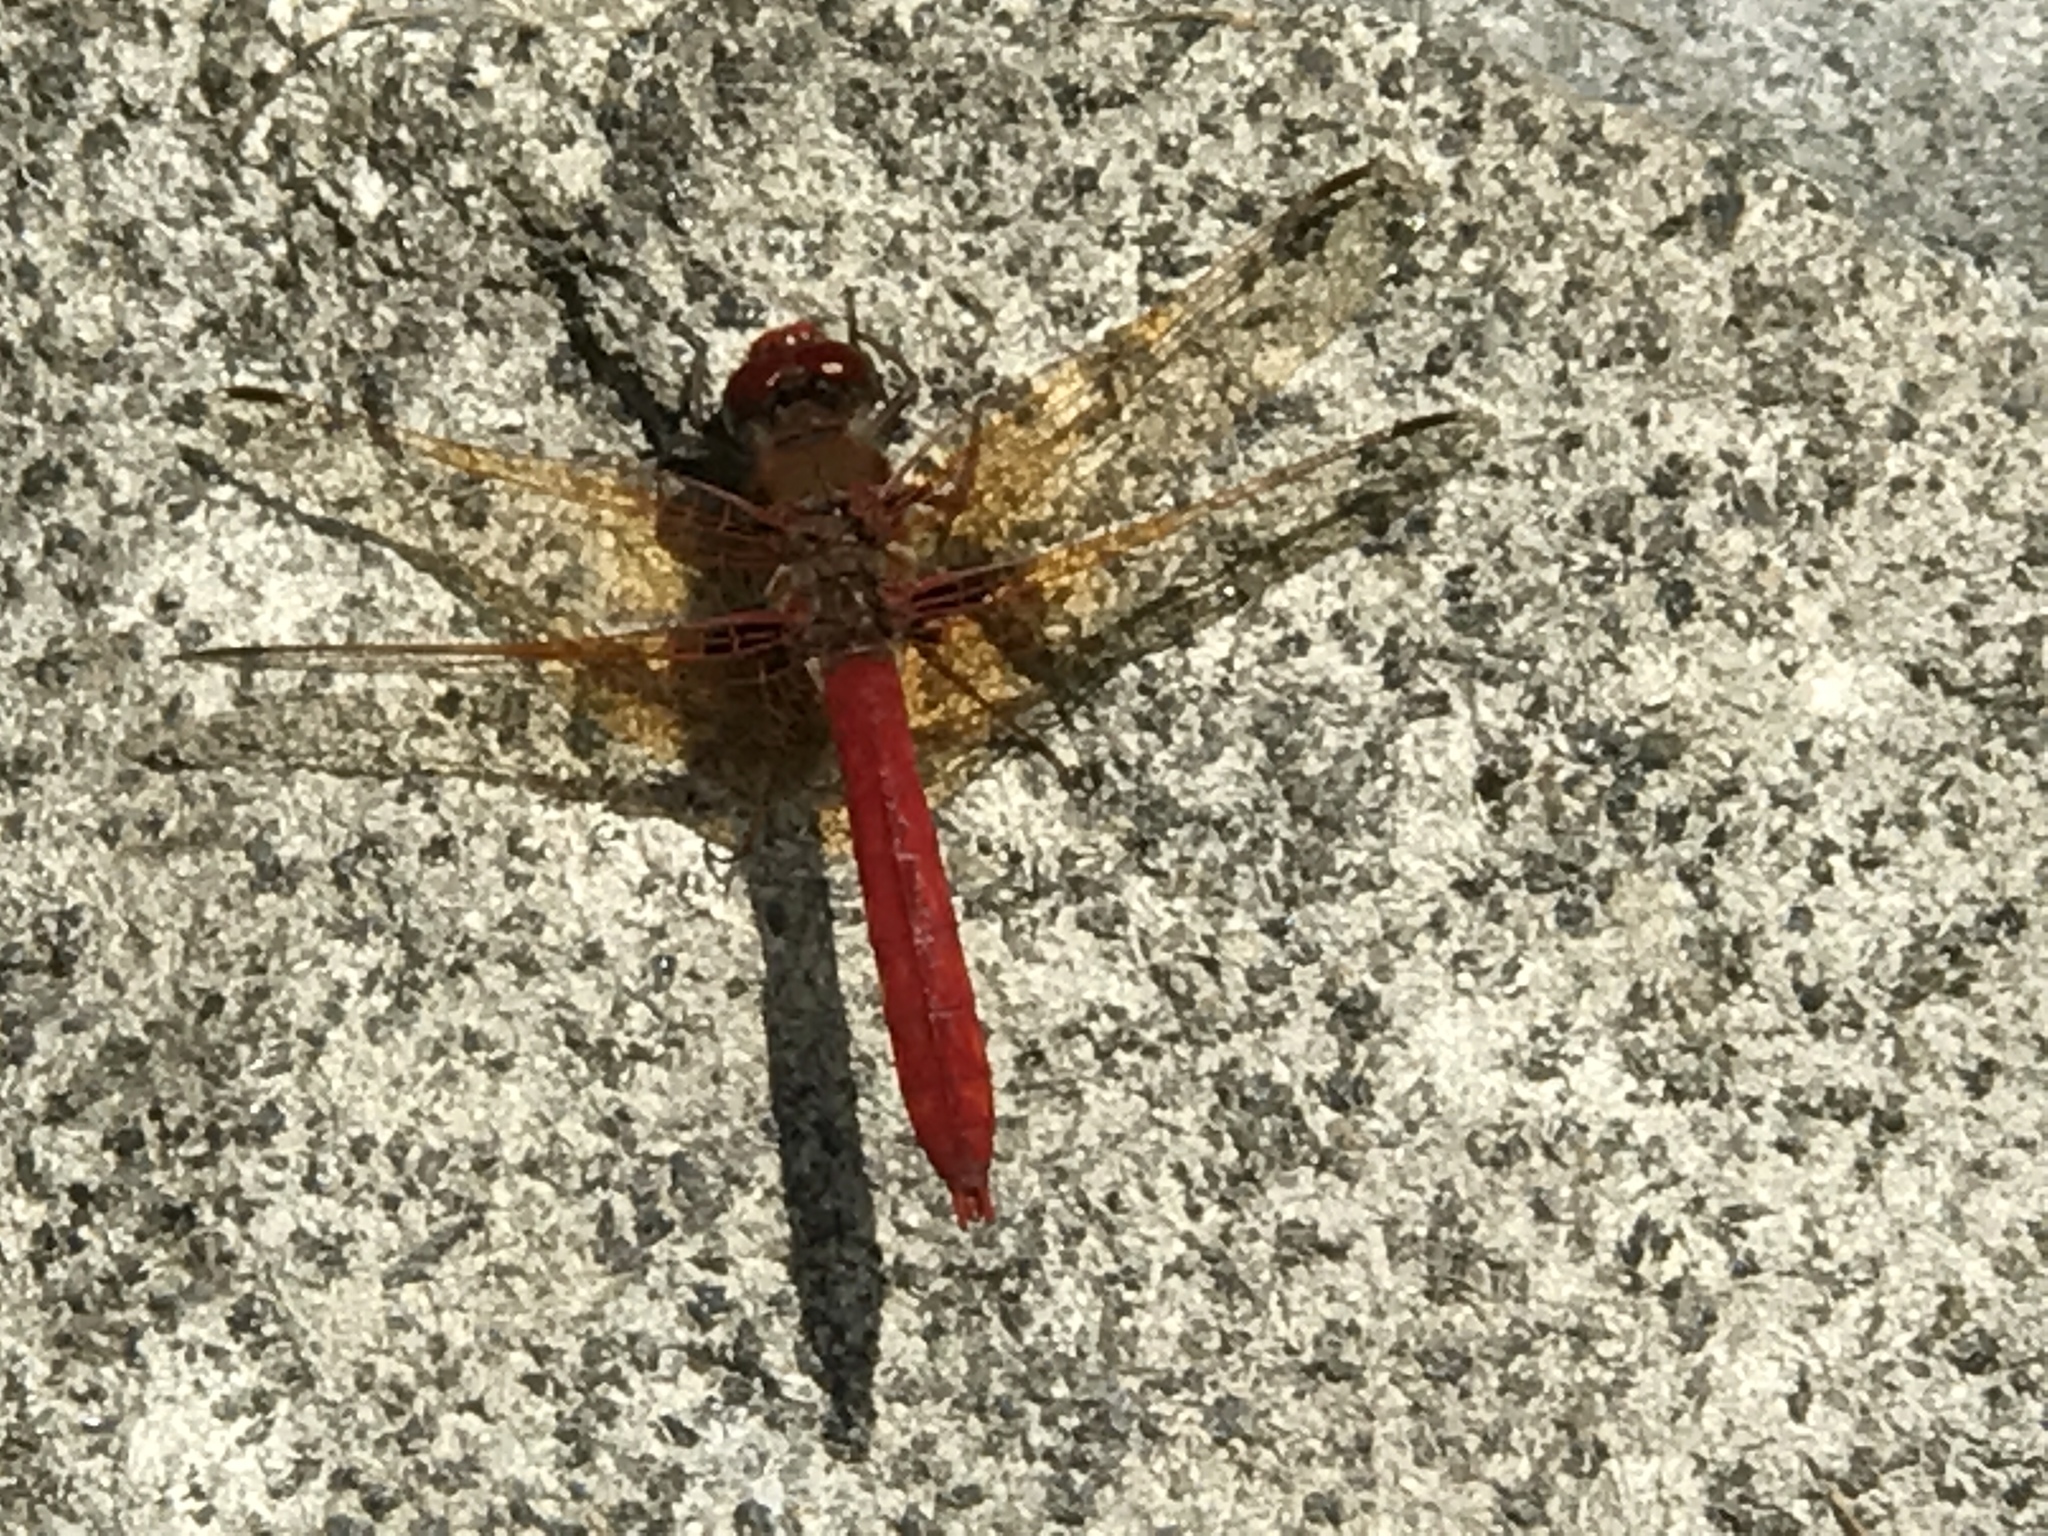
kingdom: Animalia
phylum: Arthropoda
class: Insecta
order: Odonata
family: Libellulidae
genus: Sympetrum
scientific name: Sympetrum illotum
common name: Cardinal meadowhawk
